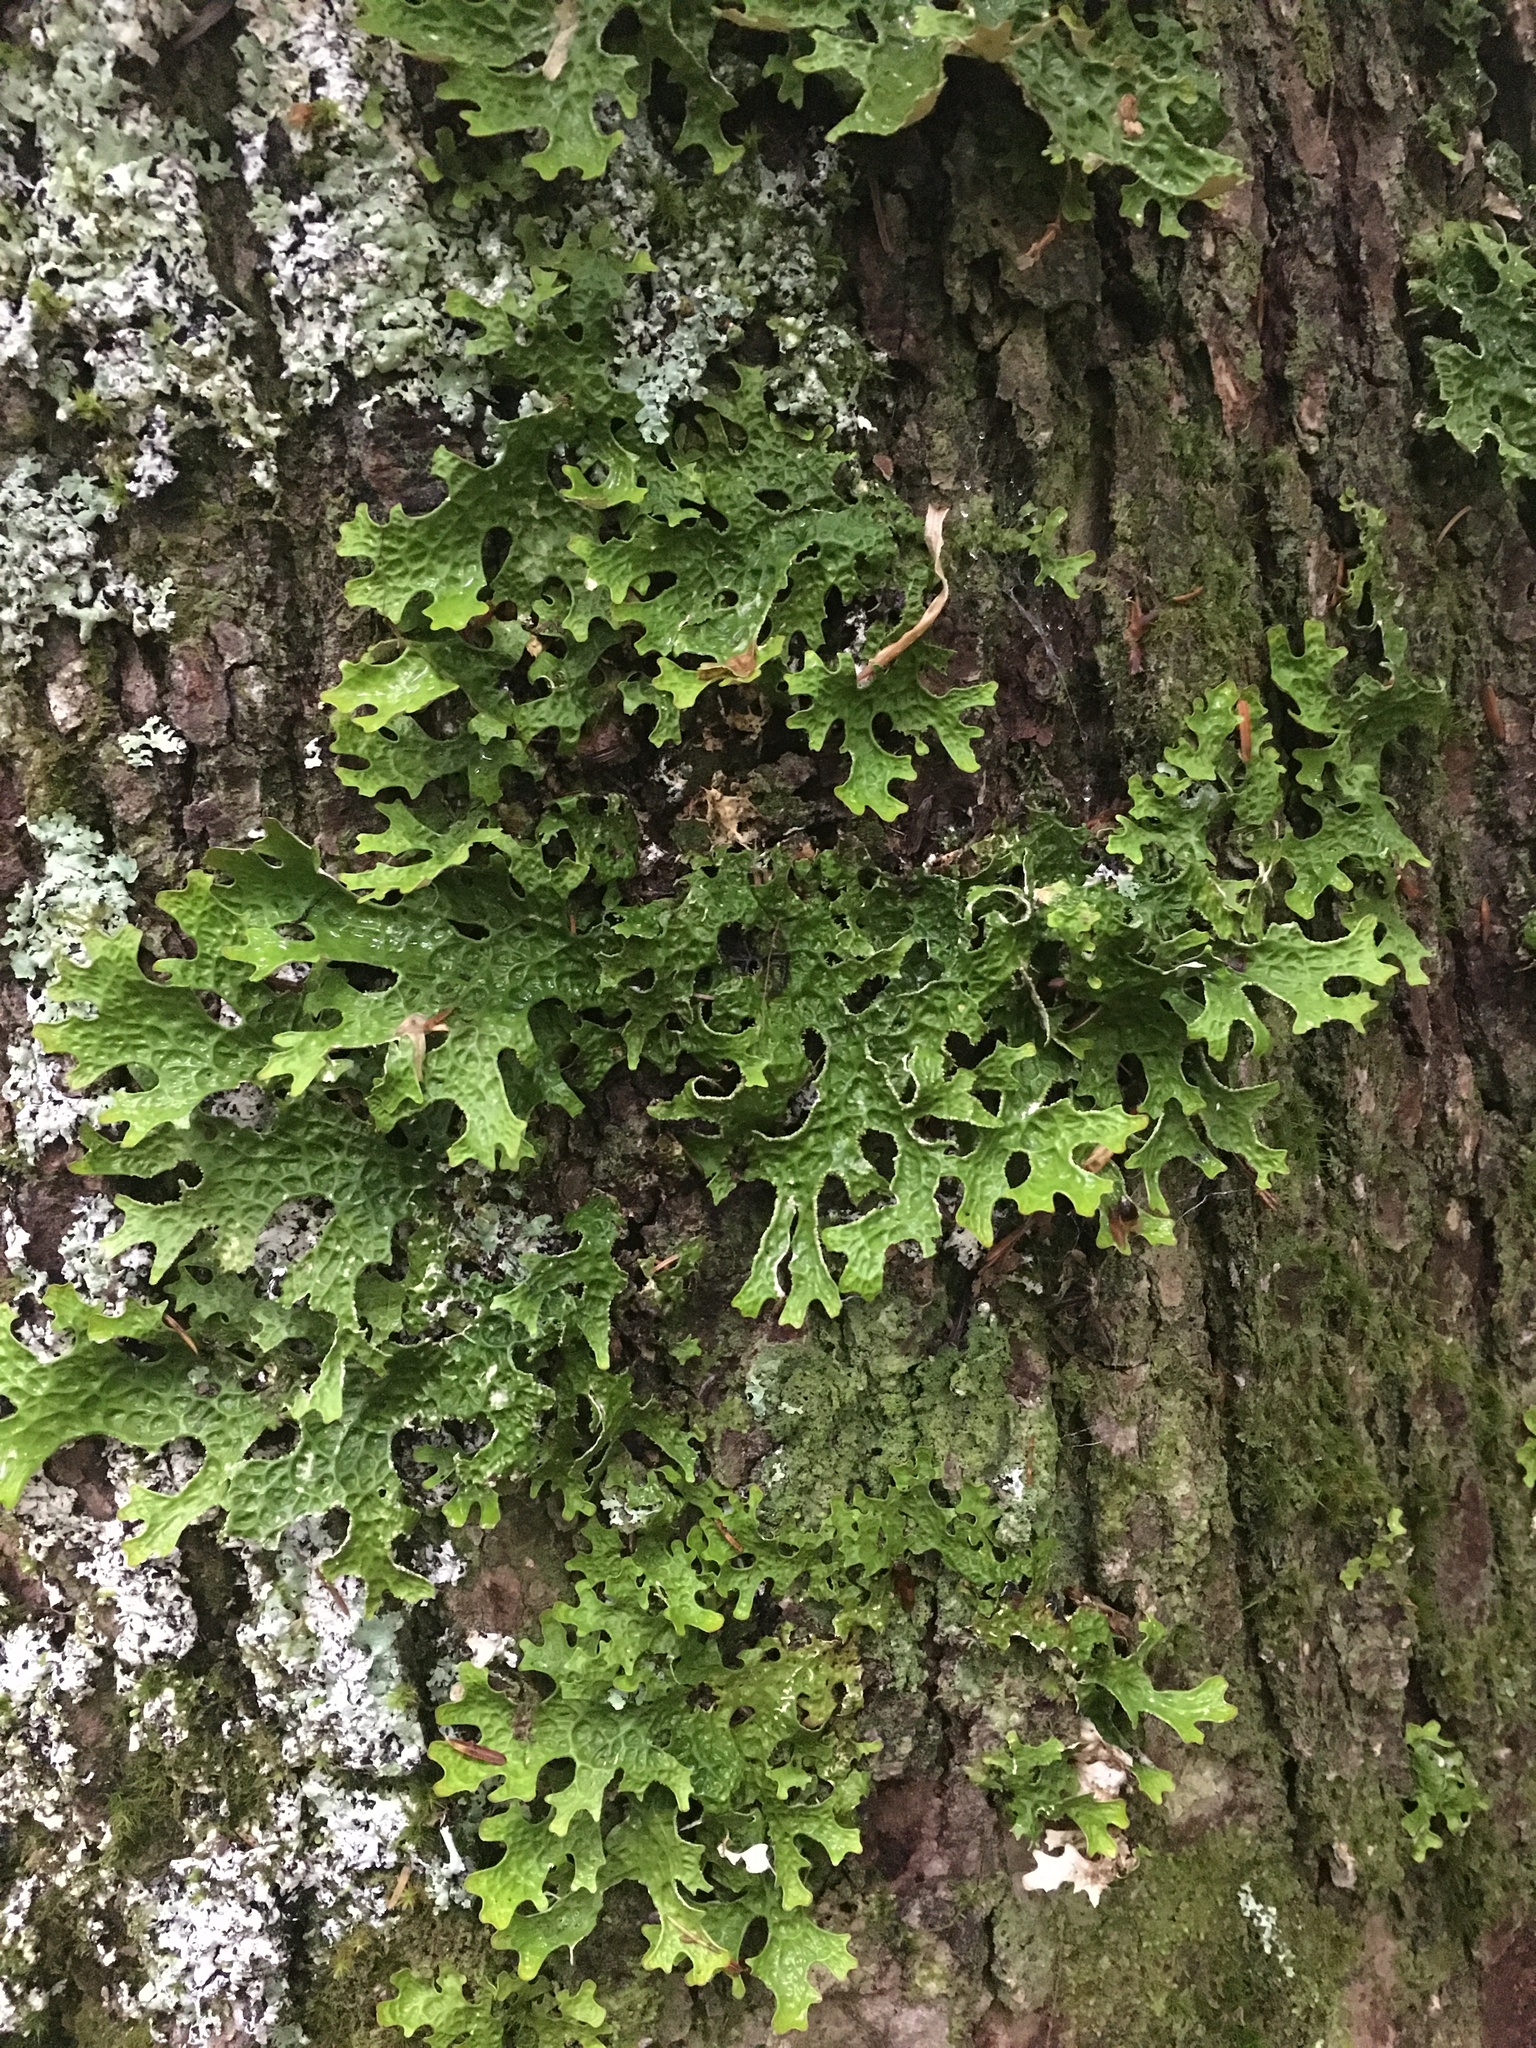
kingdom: Fungi
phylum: Ascomycota
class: Lecanoromycetes
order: Peltigerales
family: Lobariaceae
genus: Lobaria
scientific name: Lobaria pulmonaria
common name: Lungwort
